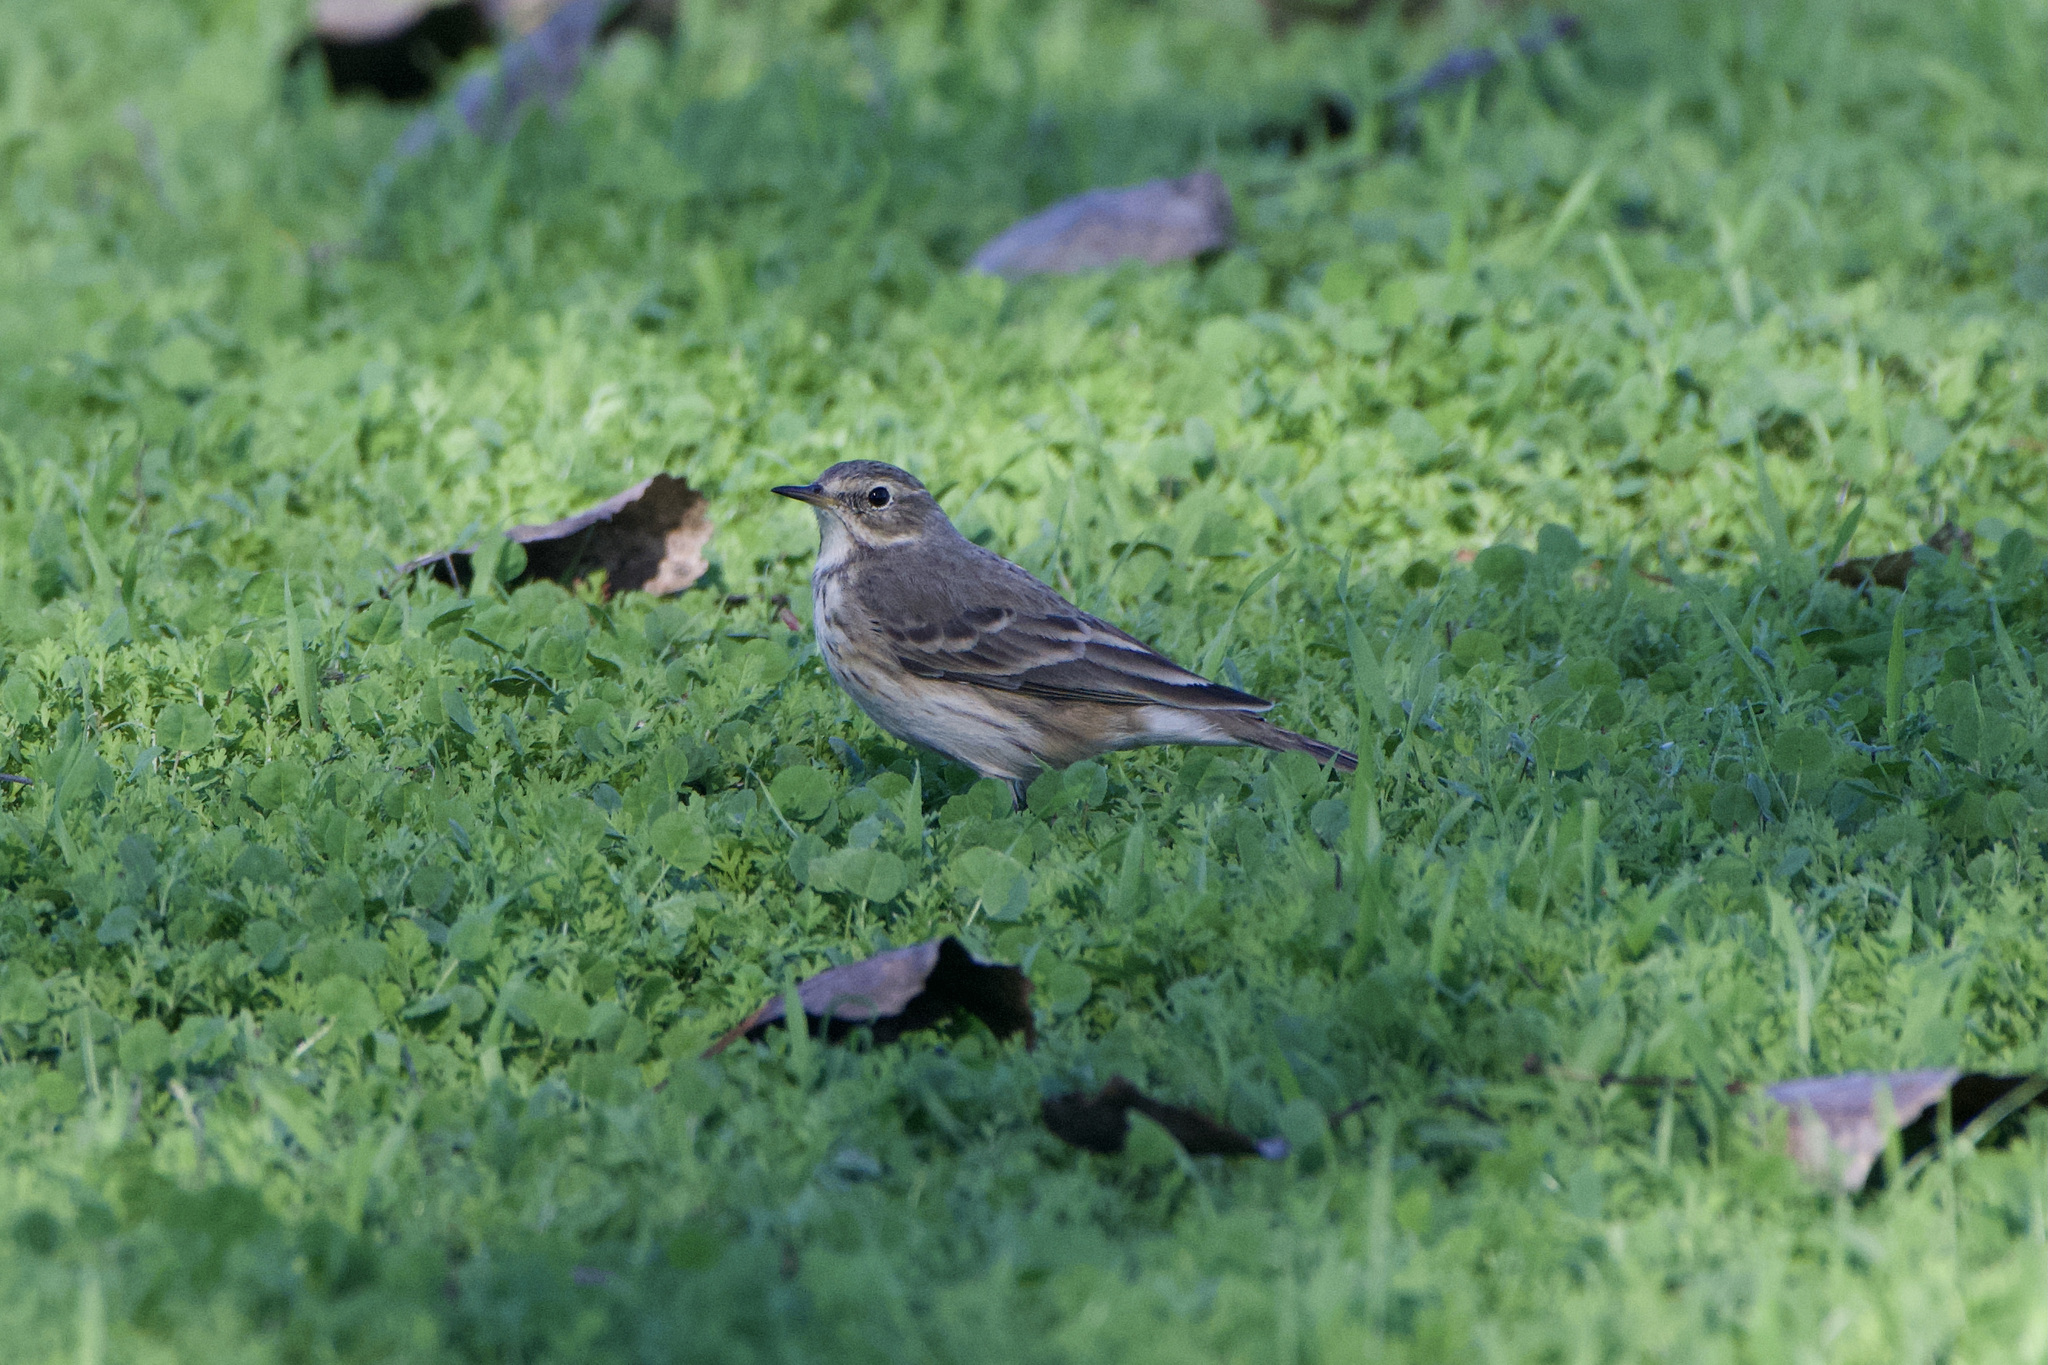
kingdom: Animalia
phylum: Chordata
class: Aves
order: Passeriformes
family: Motacillidae
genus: Anthus
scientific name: Anthus rubescens
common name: Buff-bellied pipit
